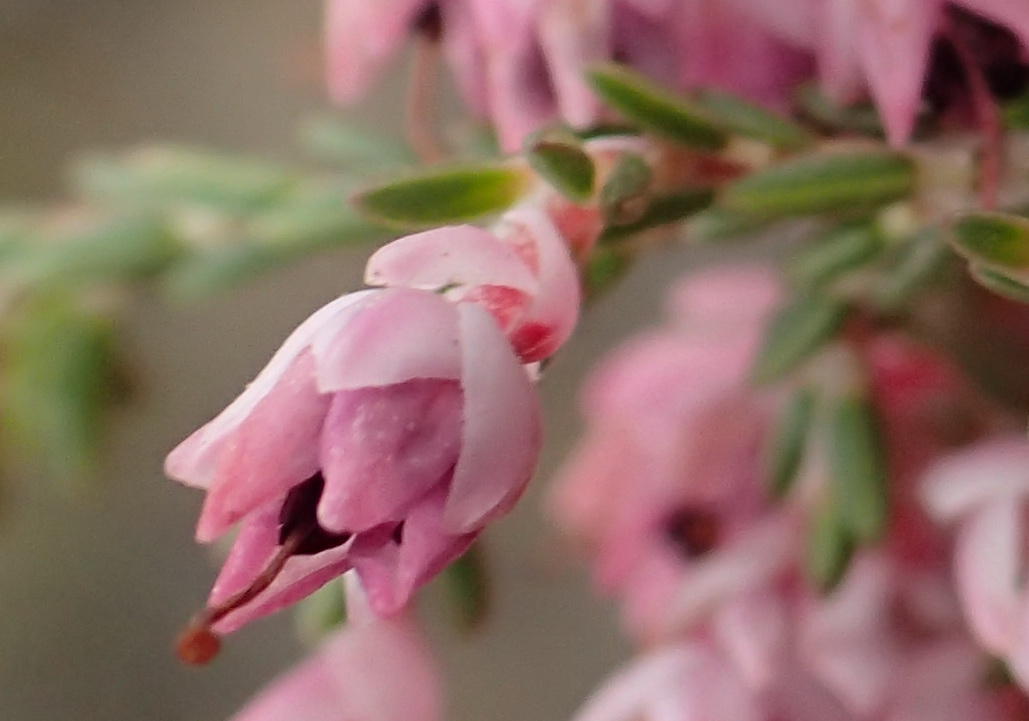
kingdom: Plantae
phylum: Tracheophyta
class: Magnoliopsida
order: Ericales
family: Ericaceae
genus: Erica
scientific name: Erica rhodantha
